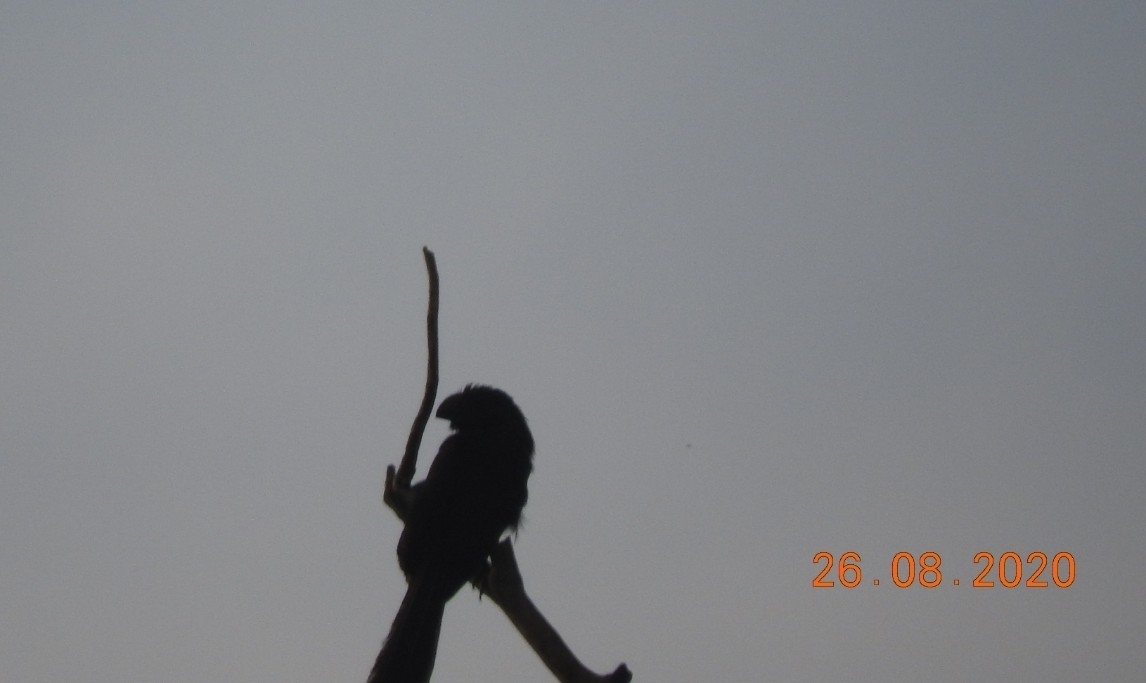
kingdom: Animalia
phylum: Chordata
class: Aves
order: Cuculiformes
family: Cuculidae
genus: Crotophaga
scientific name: Crotophaga sulcirostris
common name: Groove-billed ani
